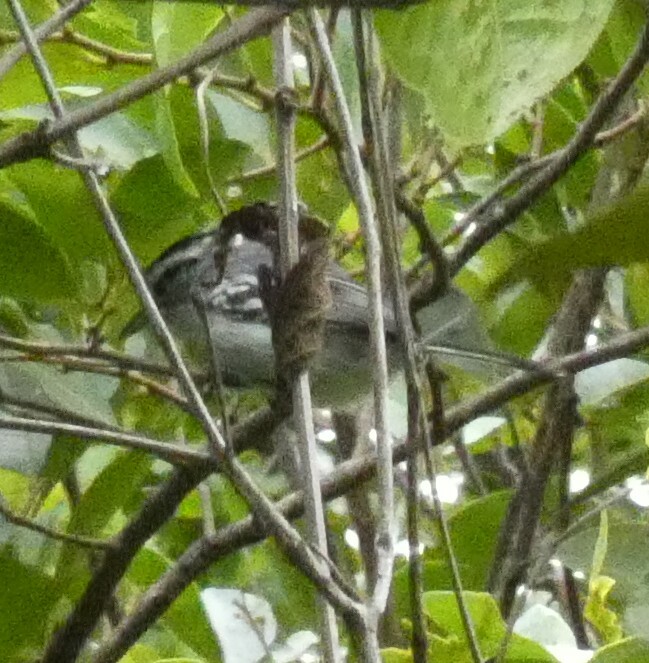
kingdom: Animalia
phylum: Chordata
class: Aves
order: Passeriformes
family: Thamnophilidae
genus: Herpsilochmus
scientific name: Herpsilochmus atricapillus
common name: Black-capped antwren
